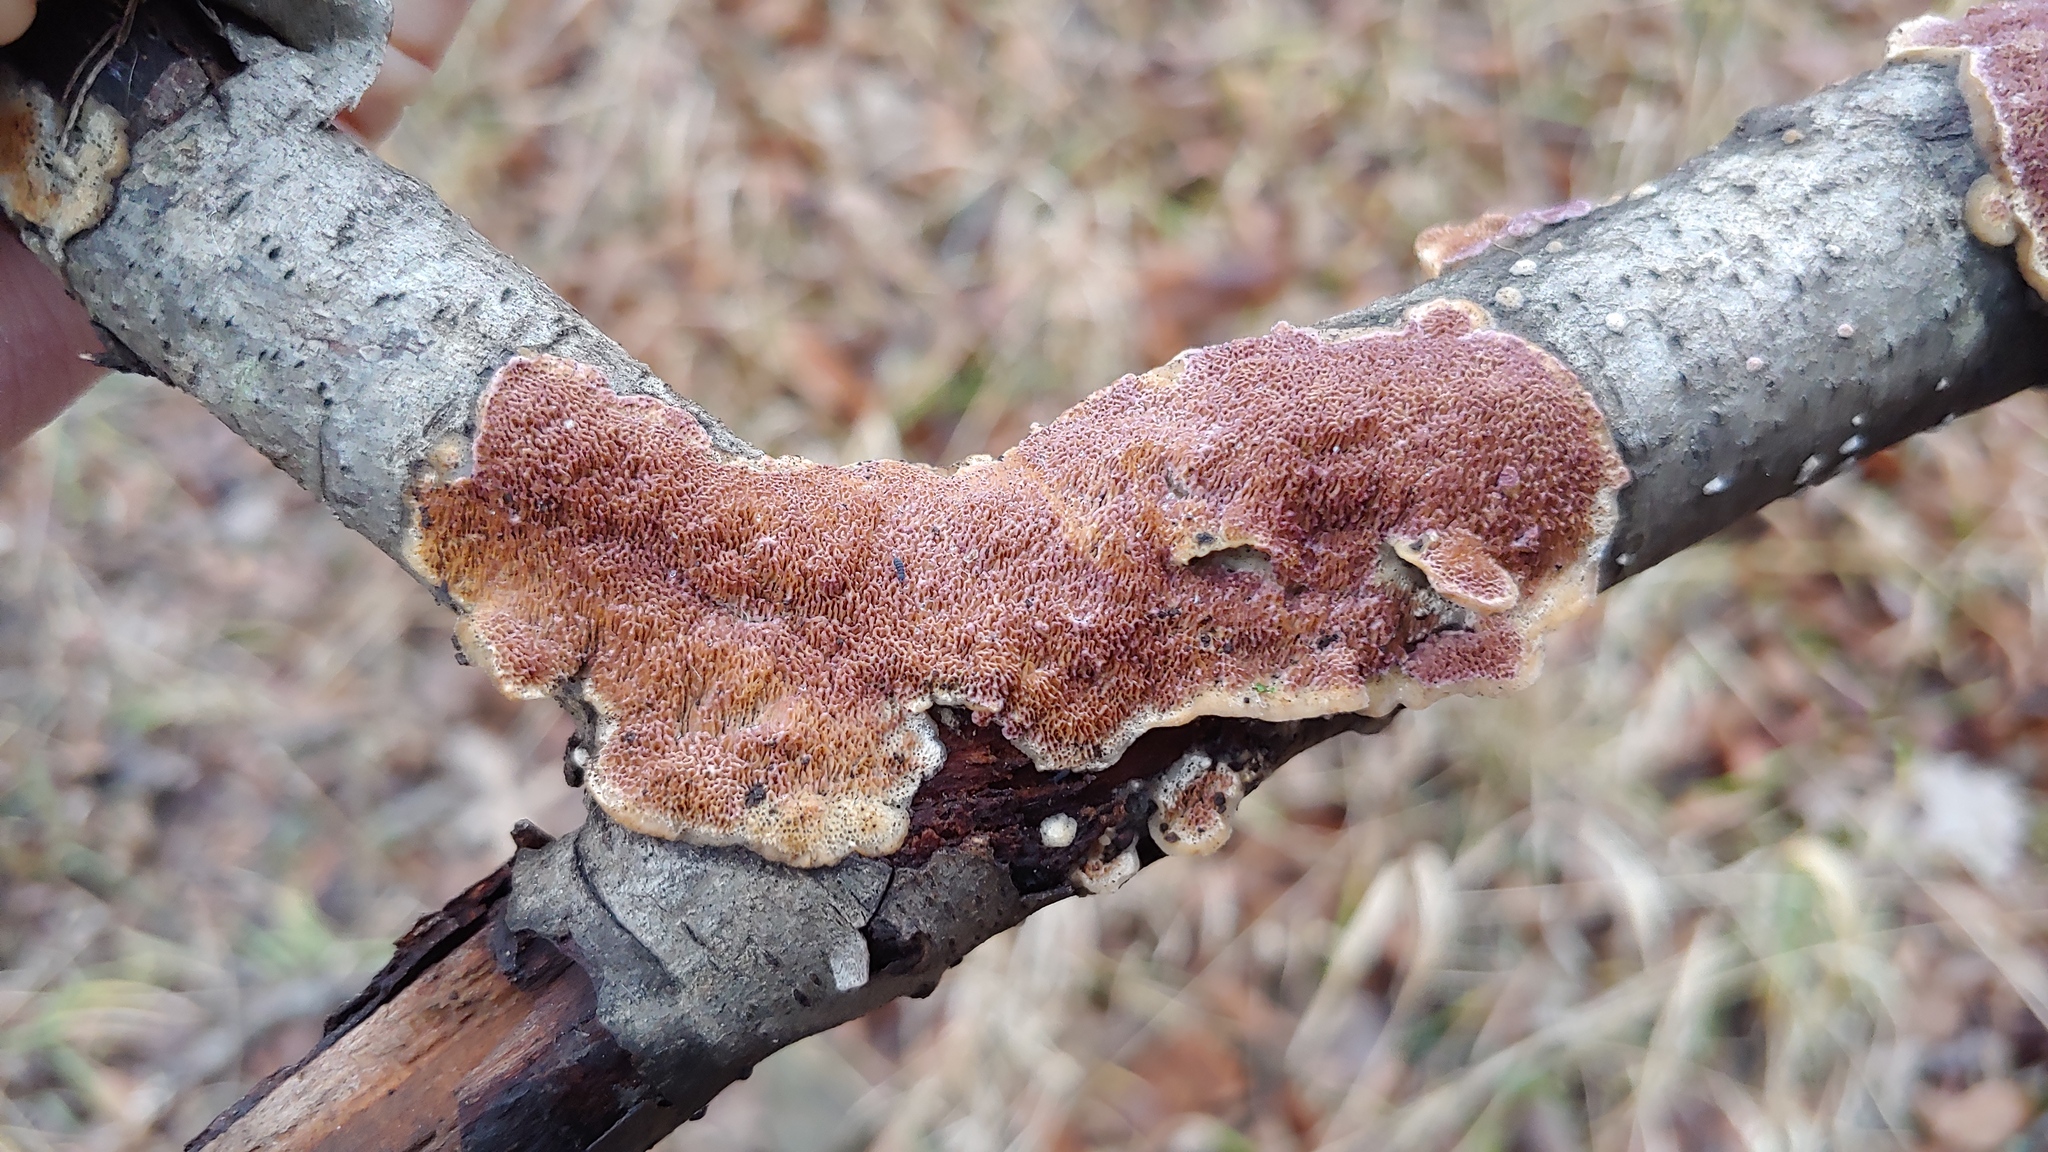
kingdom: Fungi
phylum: Basidiomycota
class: Agaricomycetes
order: Hymenochaetales
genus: Trichaptum
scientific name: Trichaptum subchartaceum
